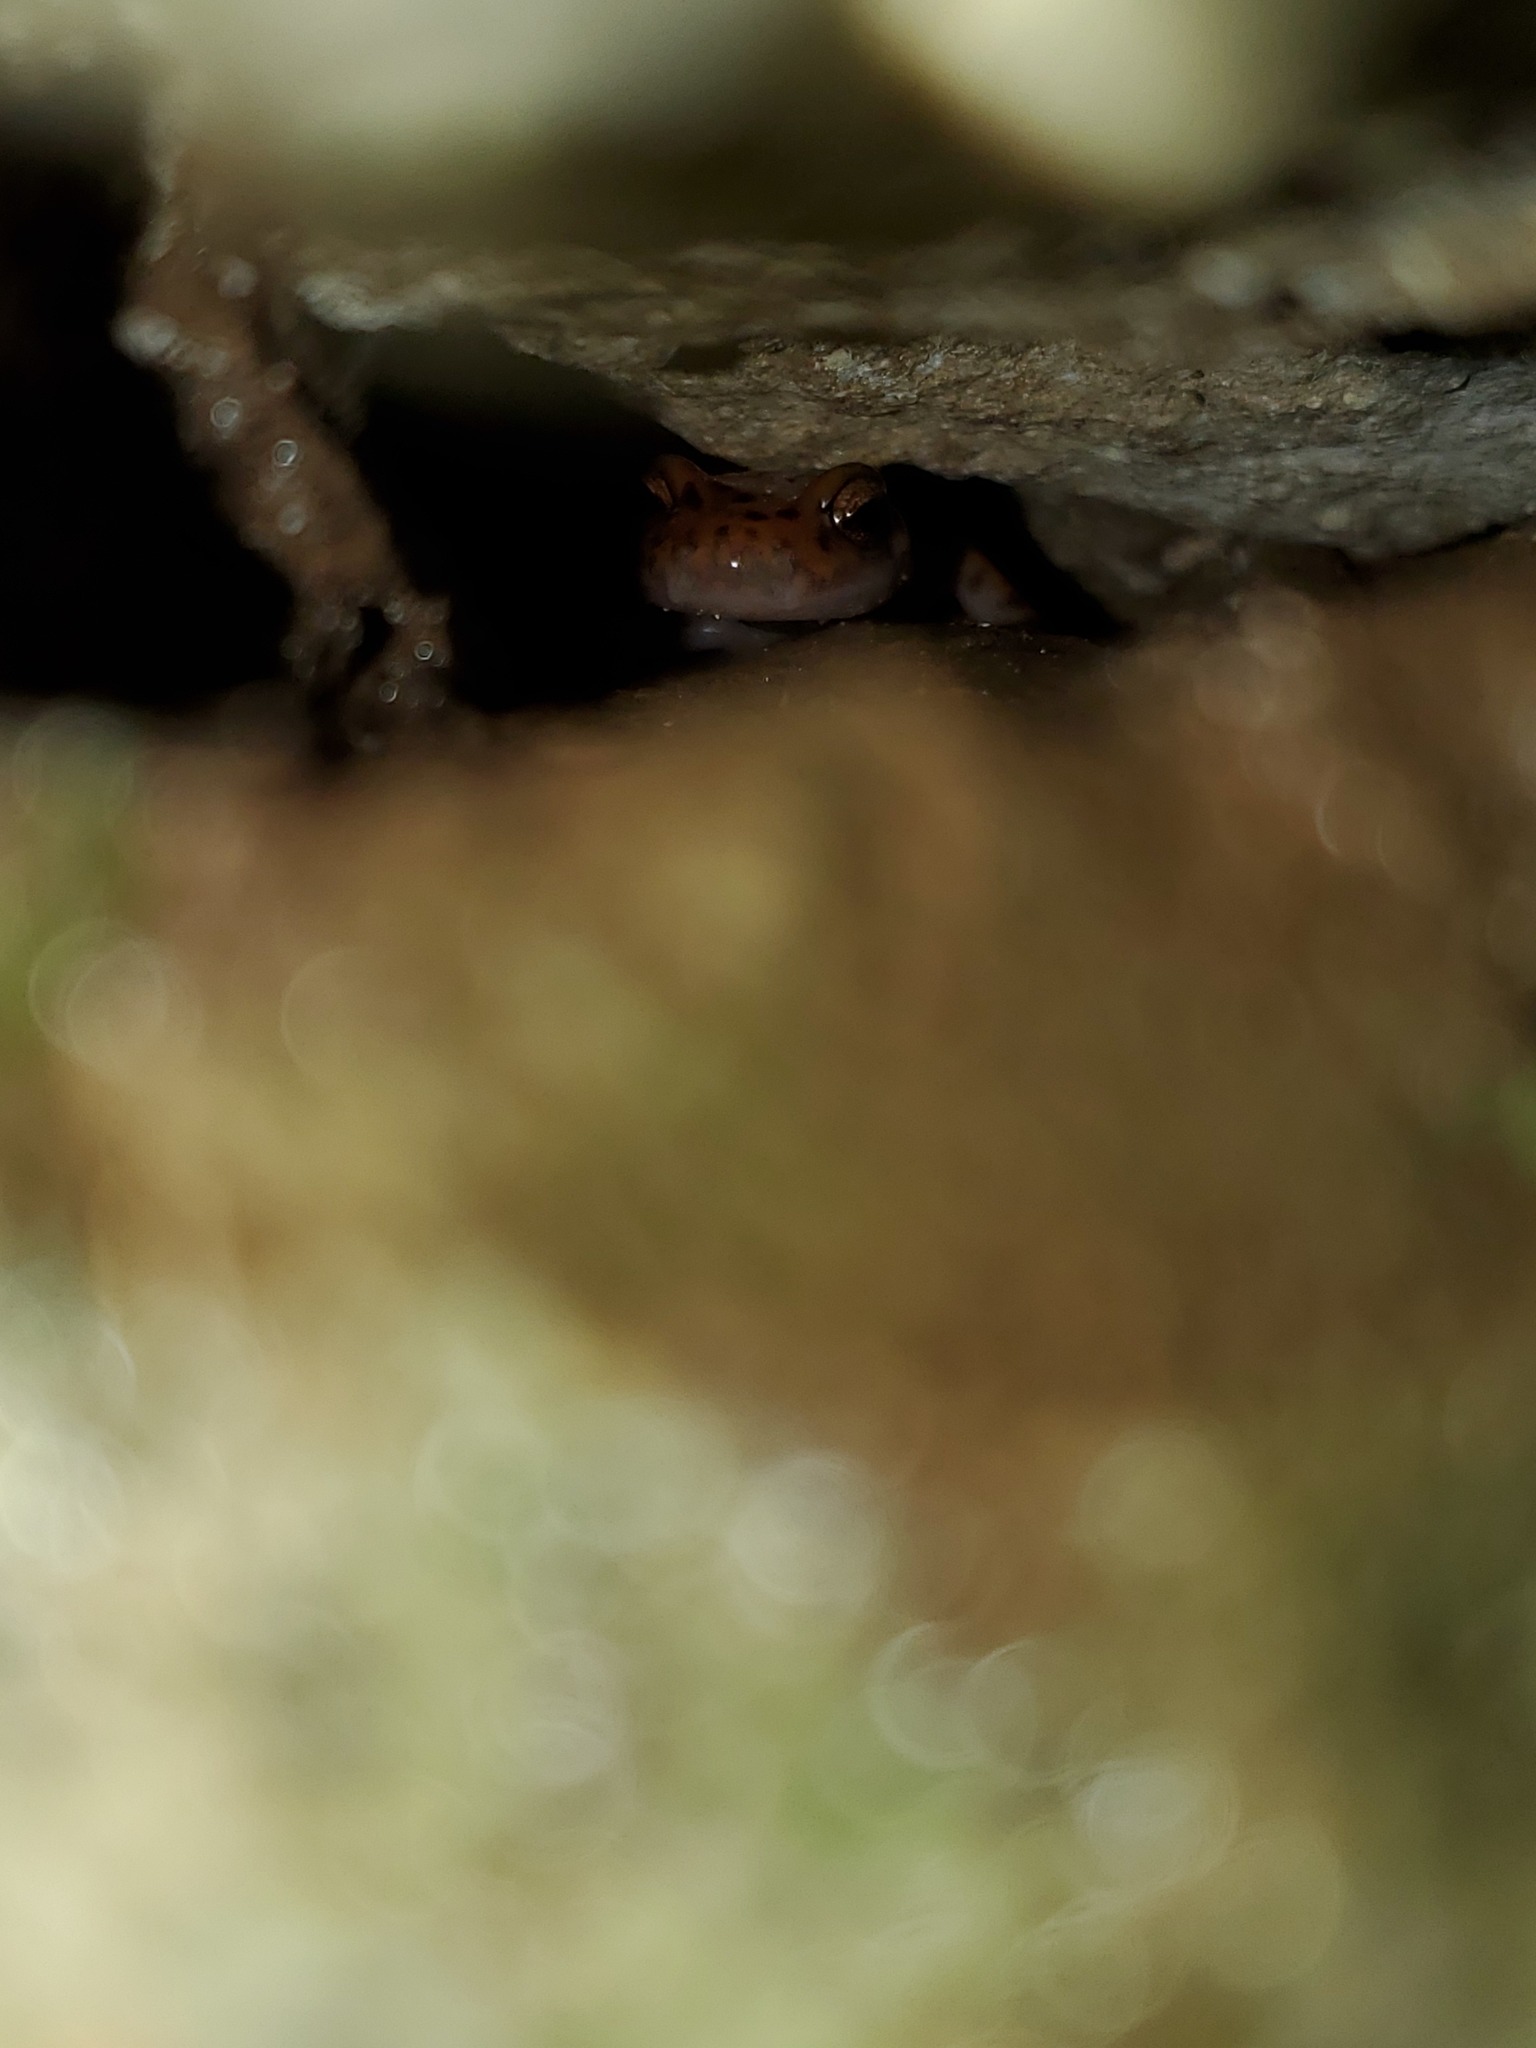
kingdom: Animalia
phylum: Chordata
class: Amphibia
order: Caudata
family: Plethodontidae
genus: Eurycea
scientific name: Eurycea lucifuga
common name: Cave salamander
